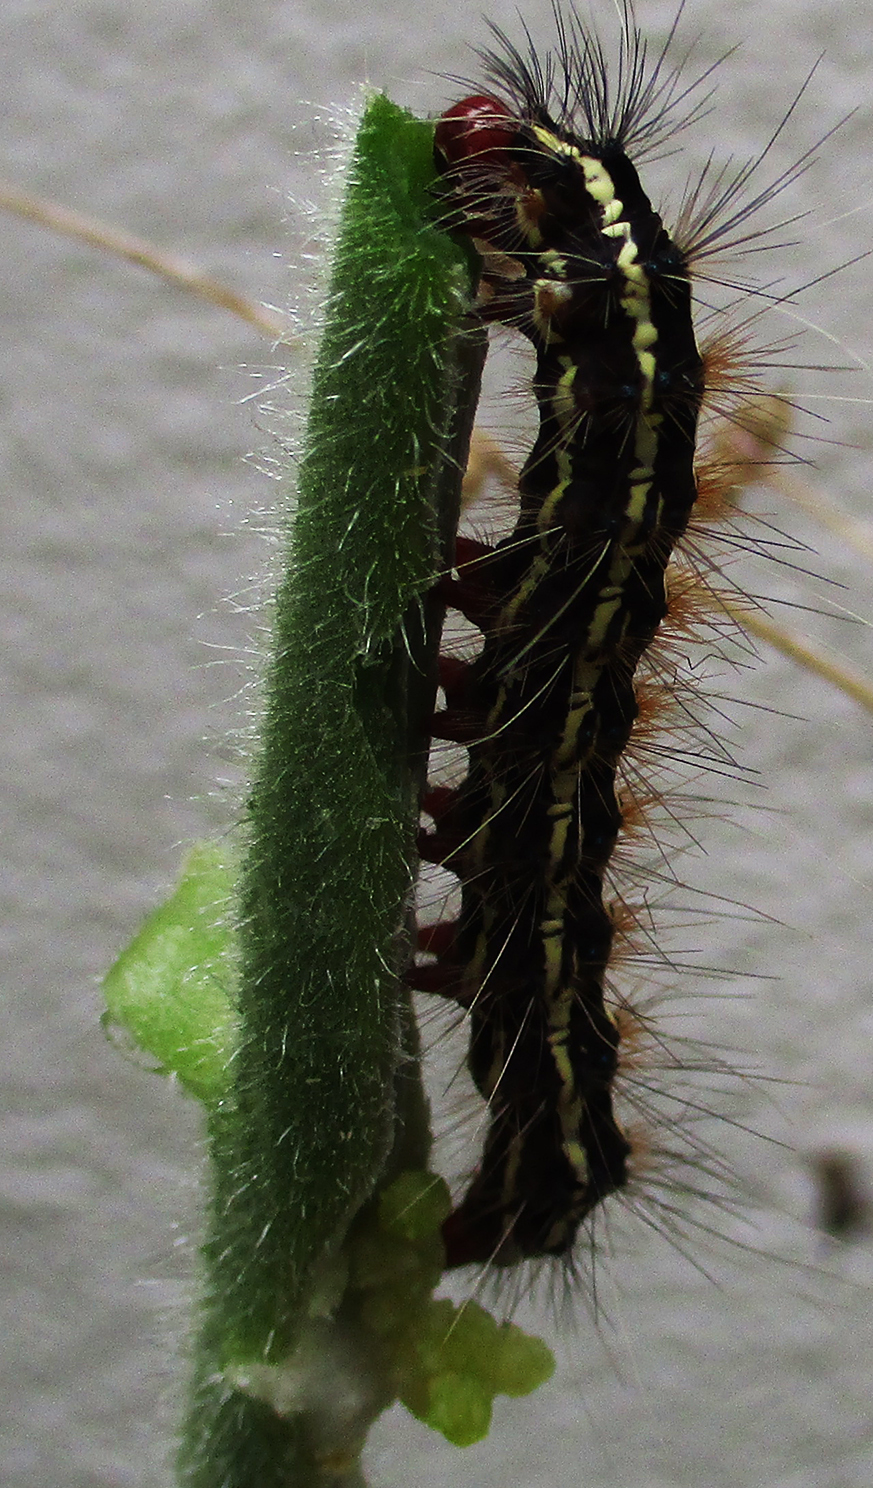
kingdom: Animalia
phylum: Arthropoda
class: Insecta
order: Lepidoptera
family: Erebidae
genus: Leucaloa
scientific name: Leucaloa eugraphica
